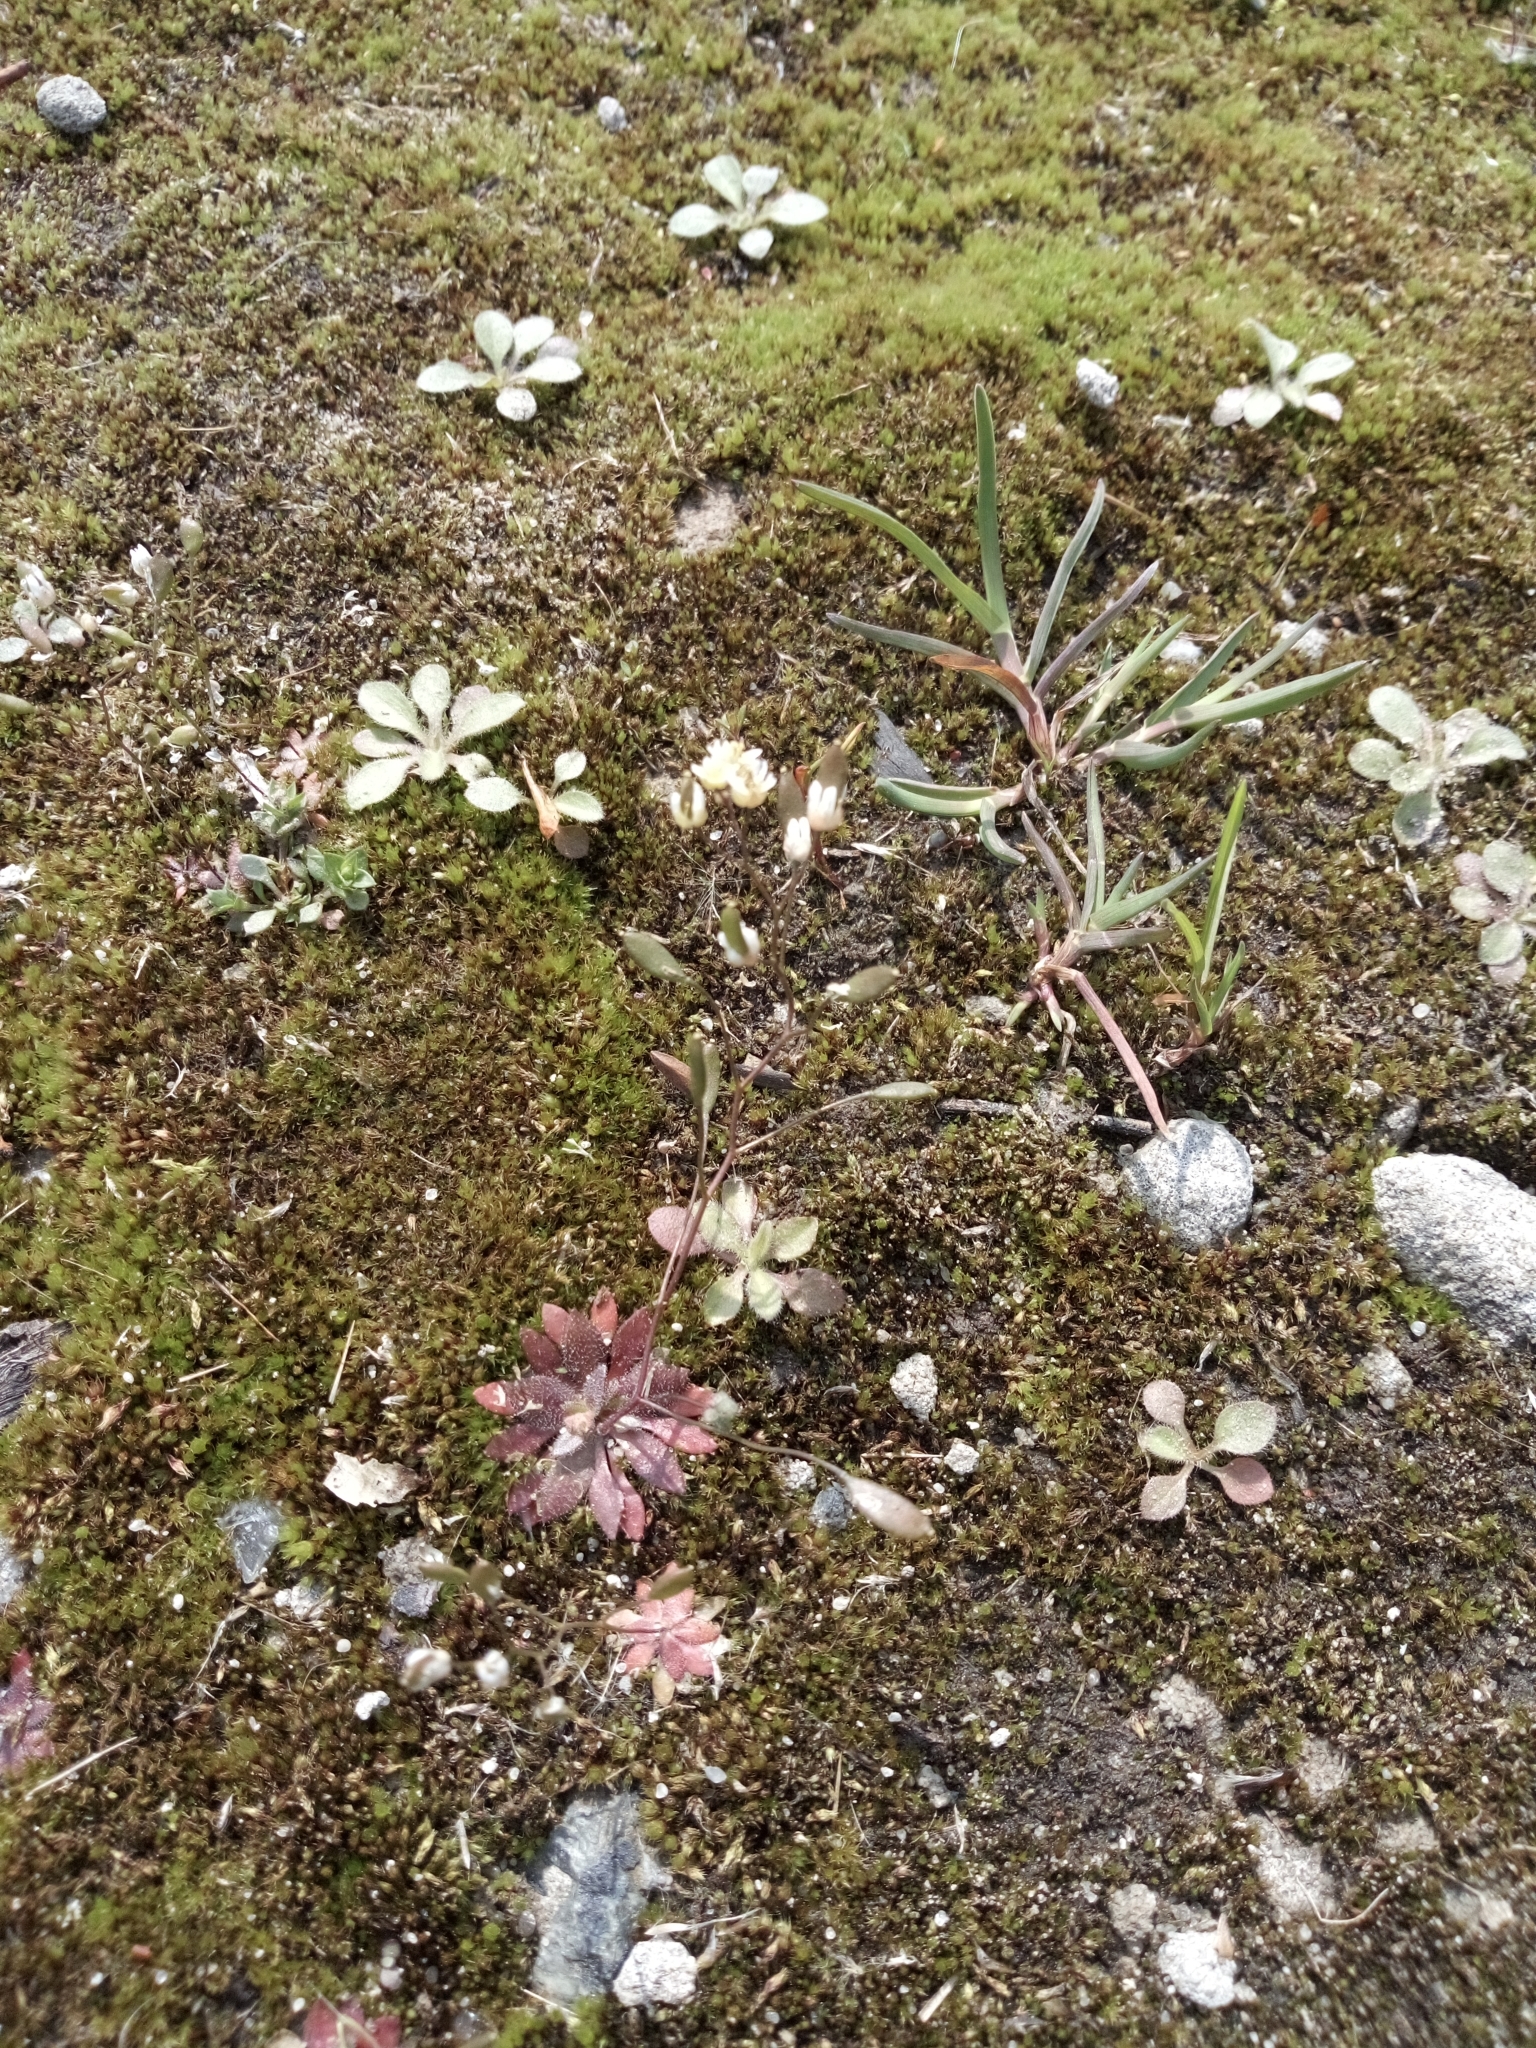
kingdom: Plantae
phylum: Tracheophyta
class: Magnoliopsida
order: Brassicales
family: Brassicaceae
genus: Draba
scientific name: Draba verna
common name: Spring draba
